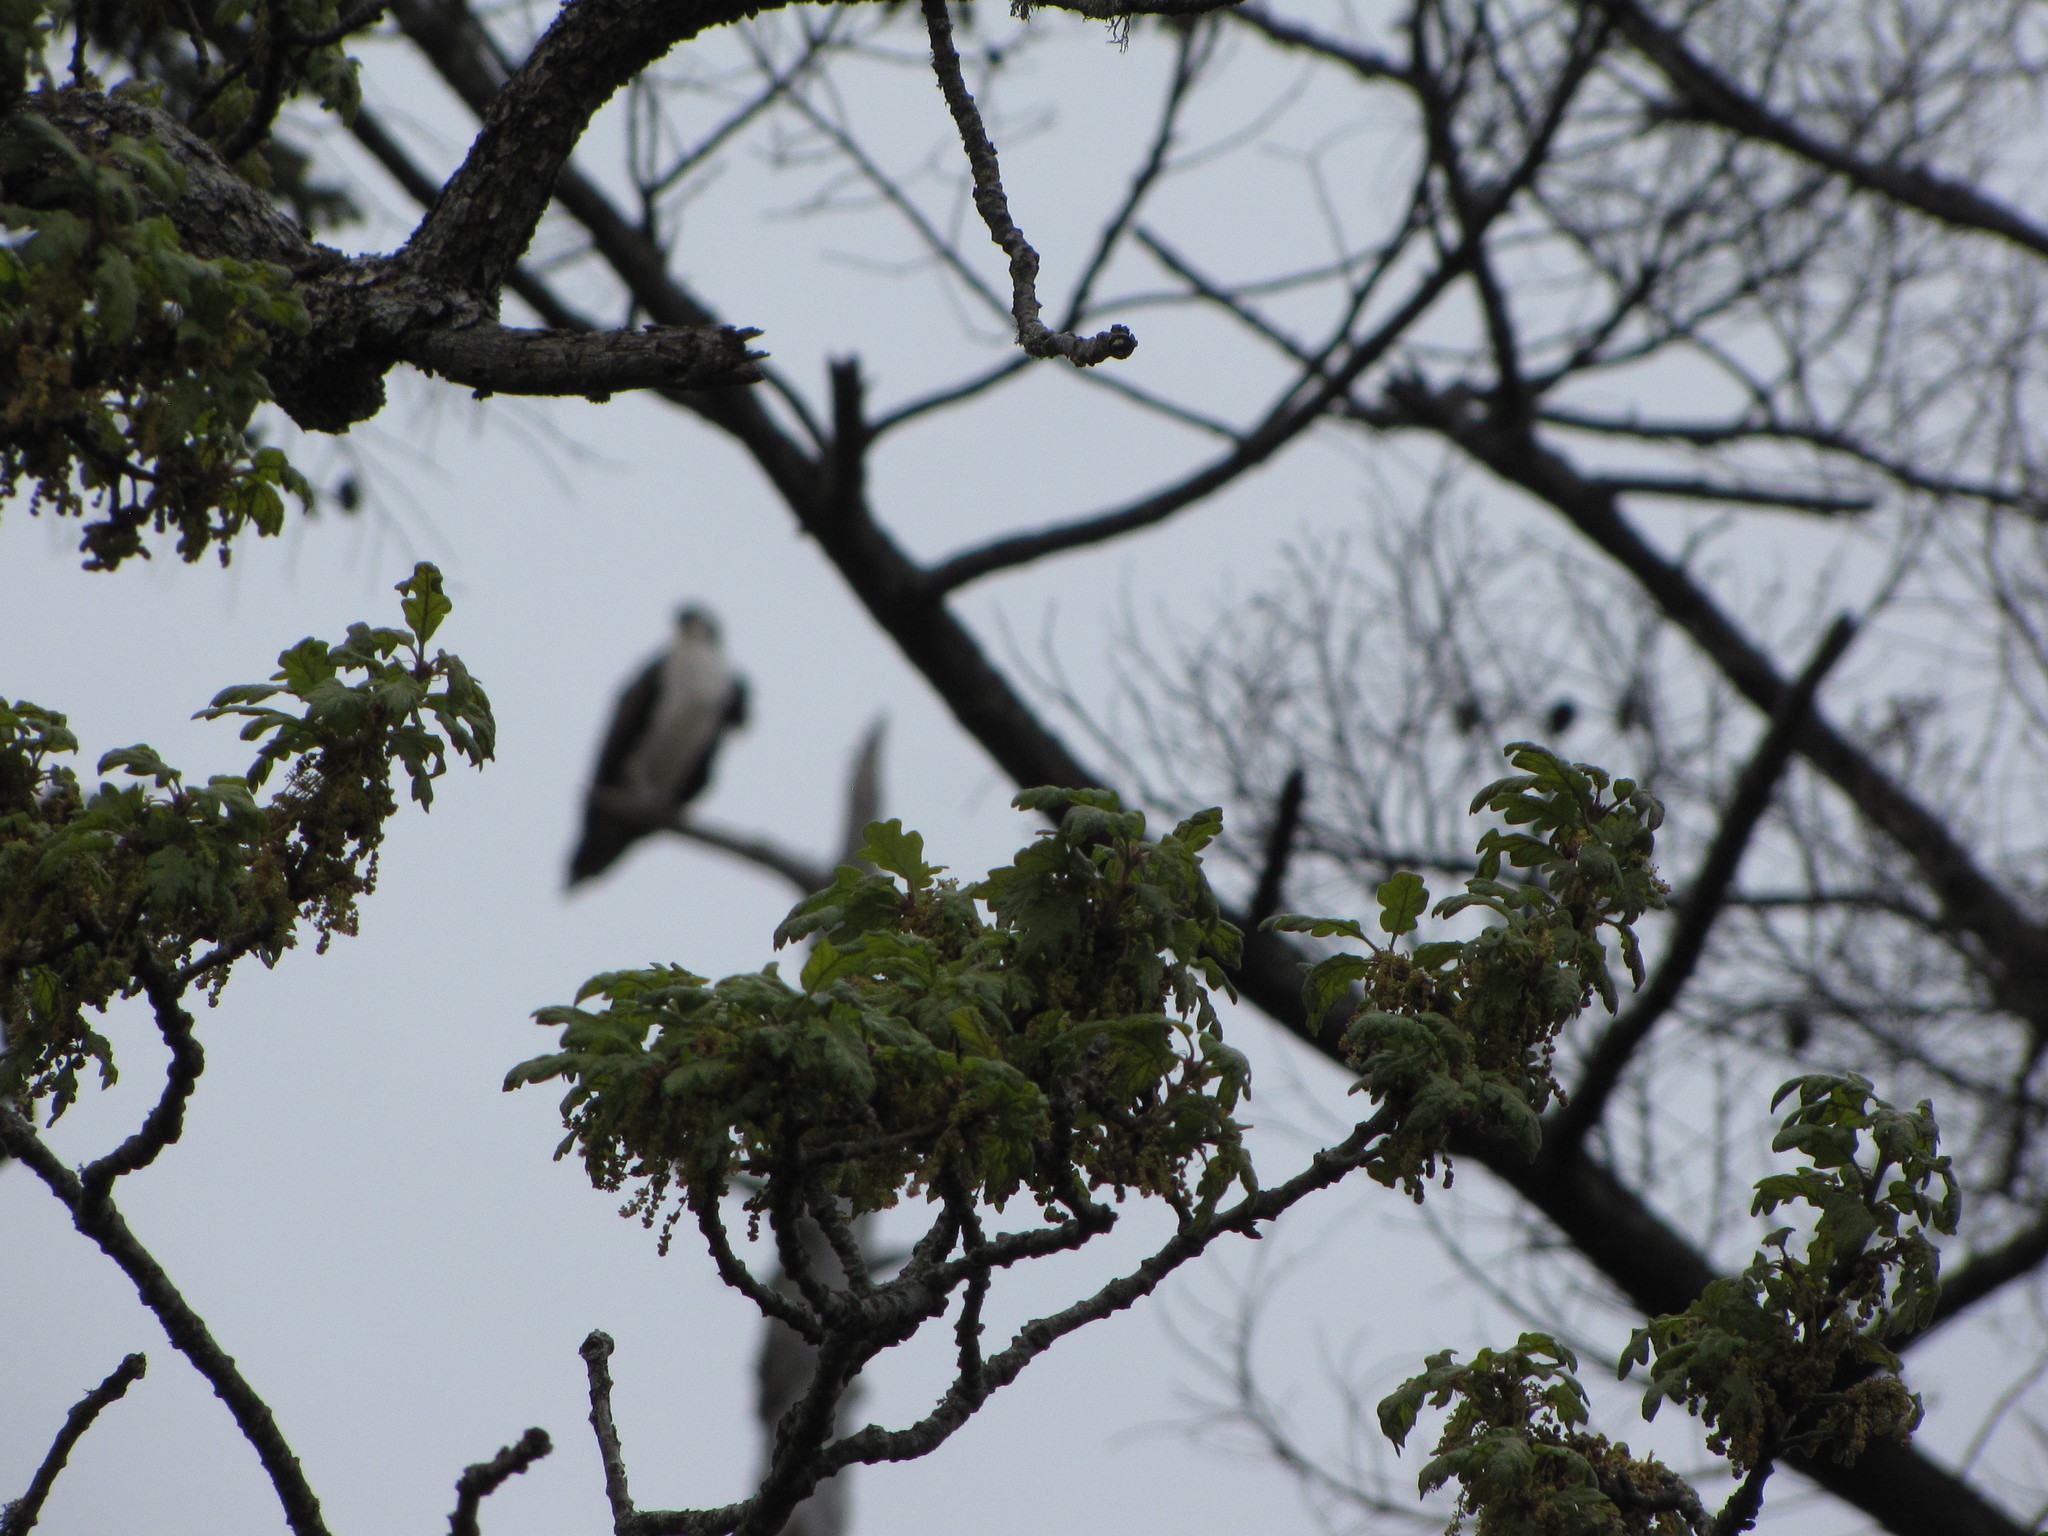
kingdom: Animalia
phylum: Chordata
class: Aves
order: Accipitriformes
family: Pandionidae
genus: Pandion
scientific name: Pandion haliaetus
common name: Osprey
